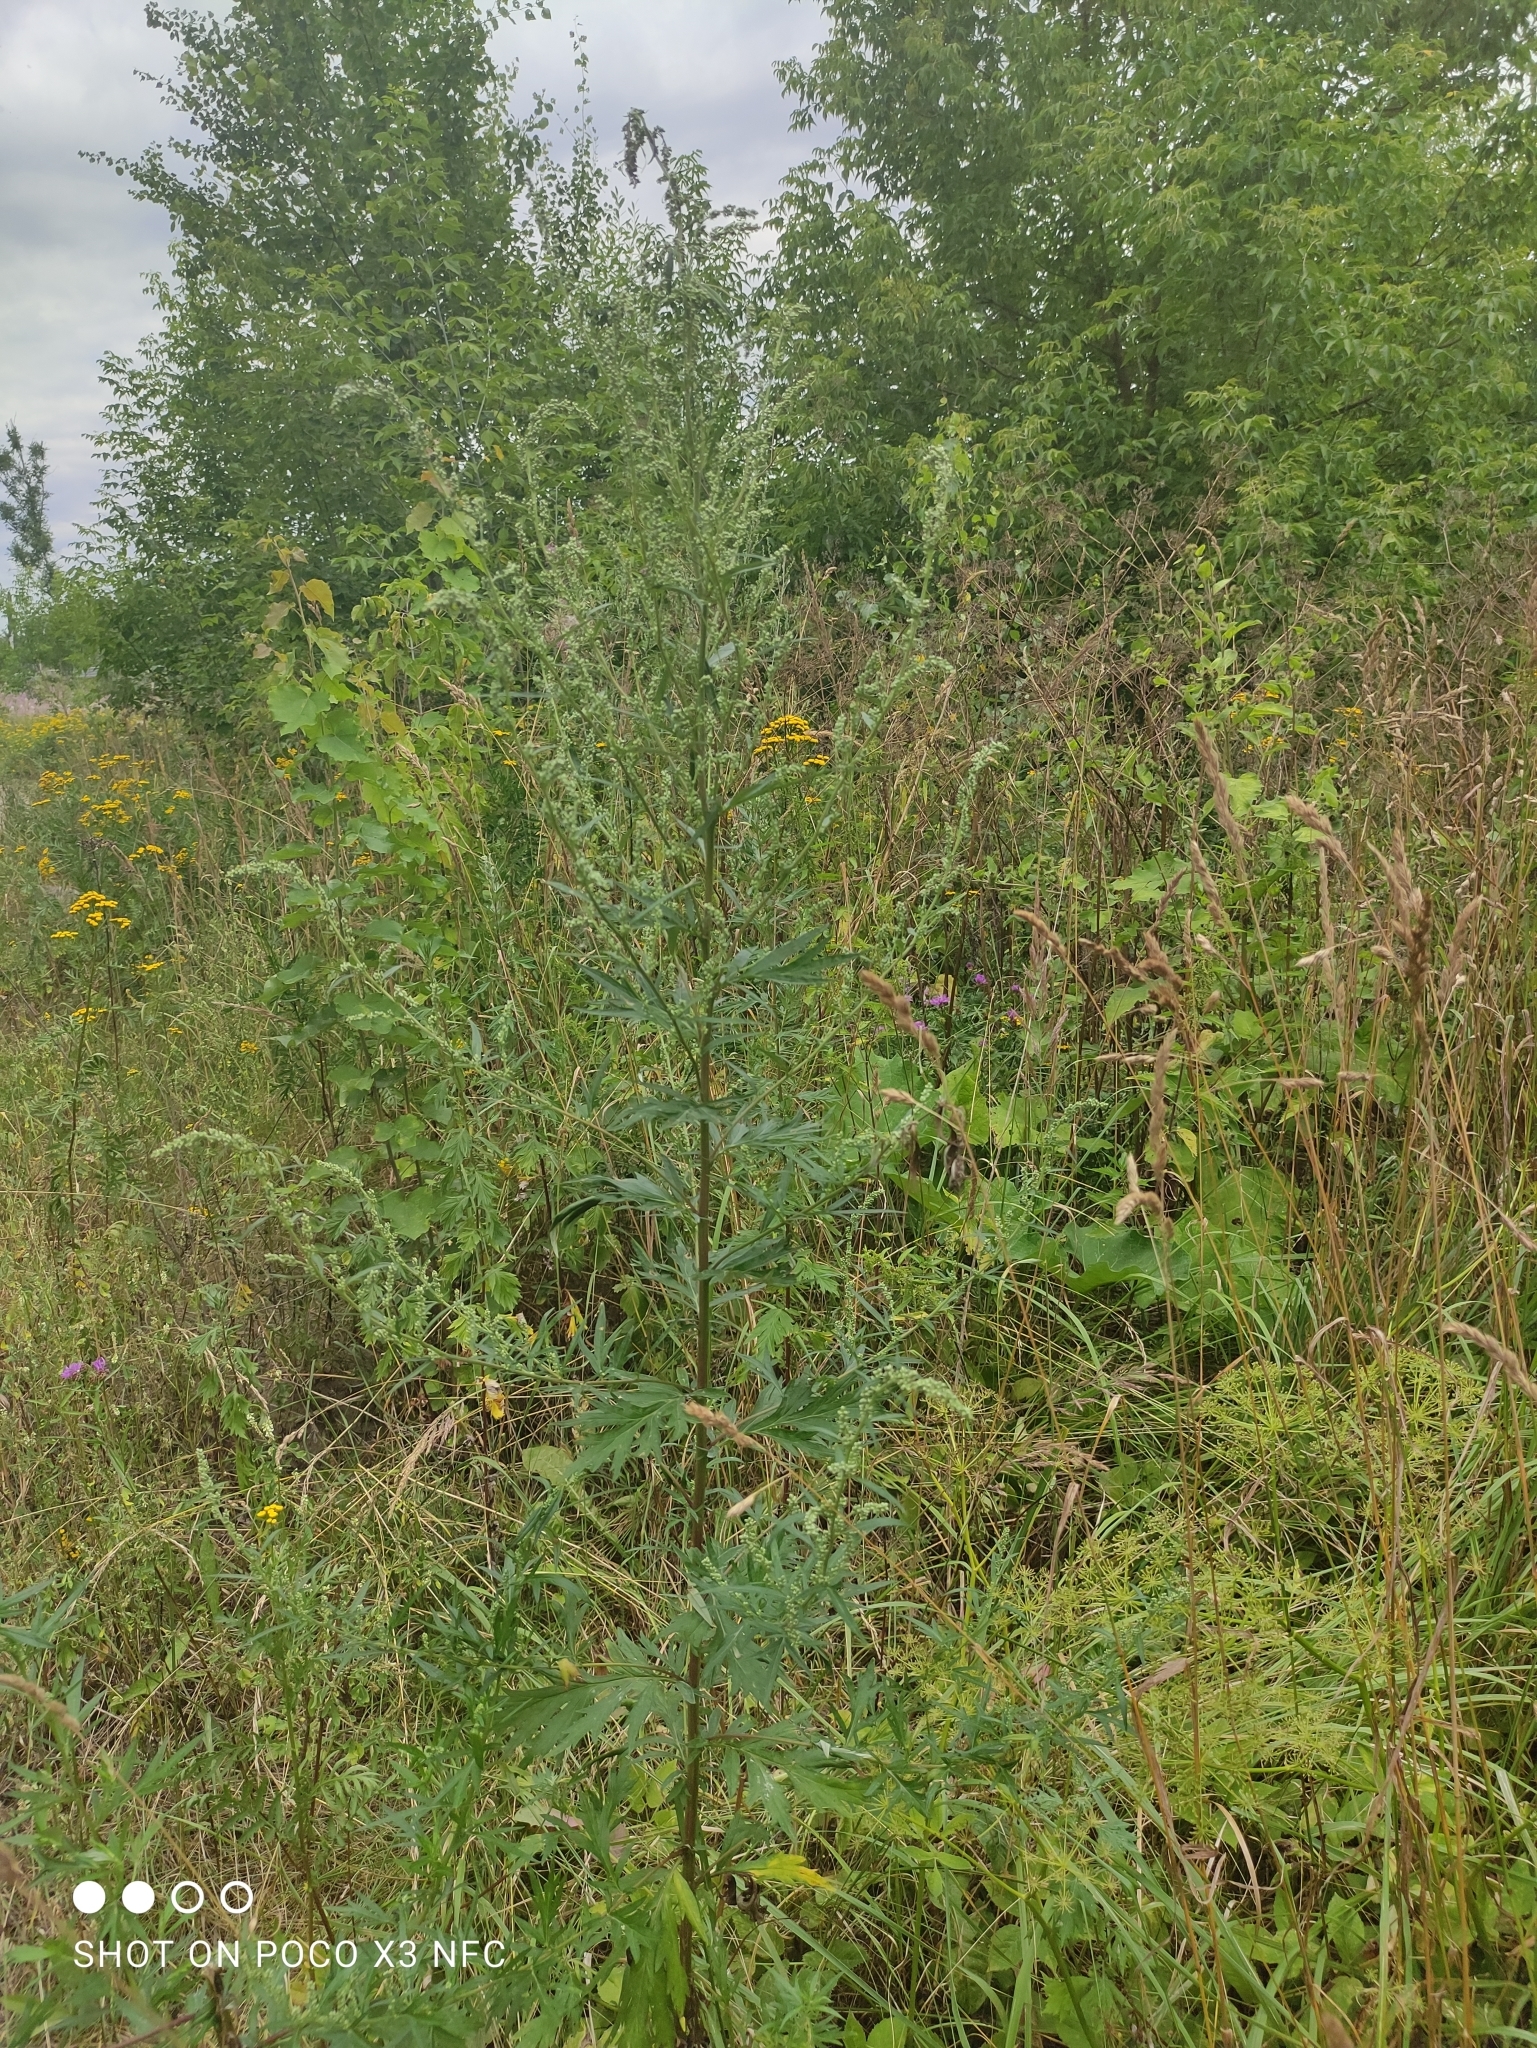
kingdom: Plantae
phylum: Tracheophyta
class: Magnoliopsida
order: Asterales
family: Asteraceae
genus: Artemisia
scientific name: Artemisia vulgaris
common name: Mugwort
